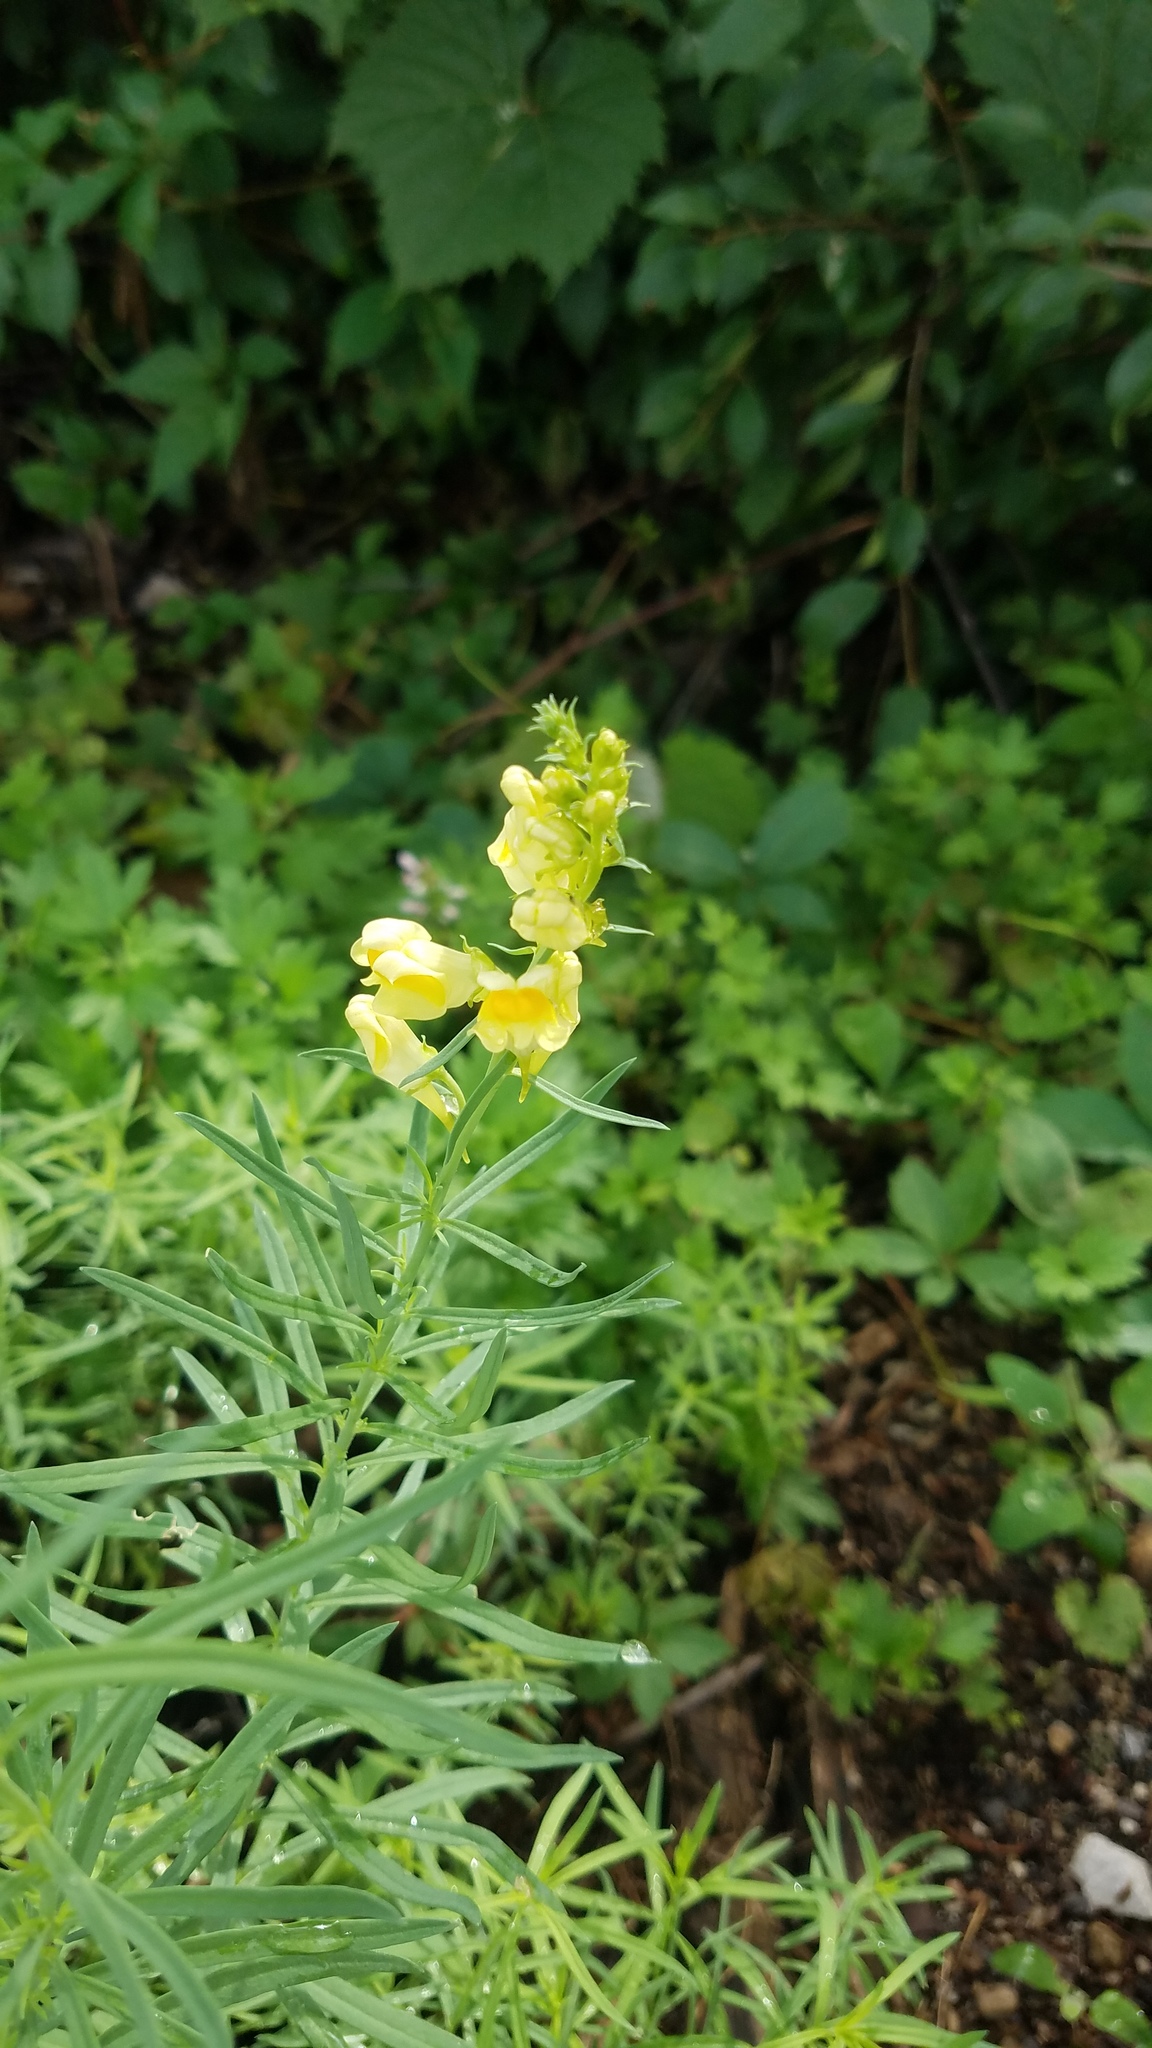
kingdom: Plantae
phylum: Tracheophyta
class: Magnoliopsida
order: Lamiales
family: Plantaginaceae
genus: Linaria
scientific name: Linaria vulgaris
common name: Butter and eggs
